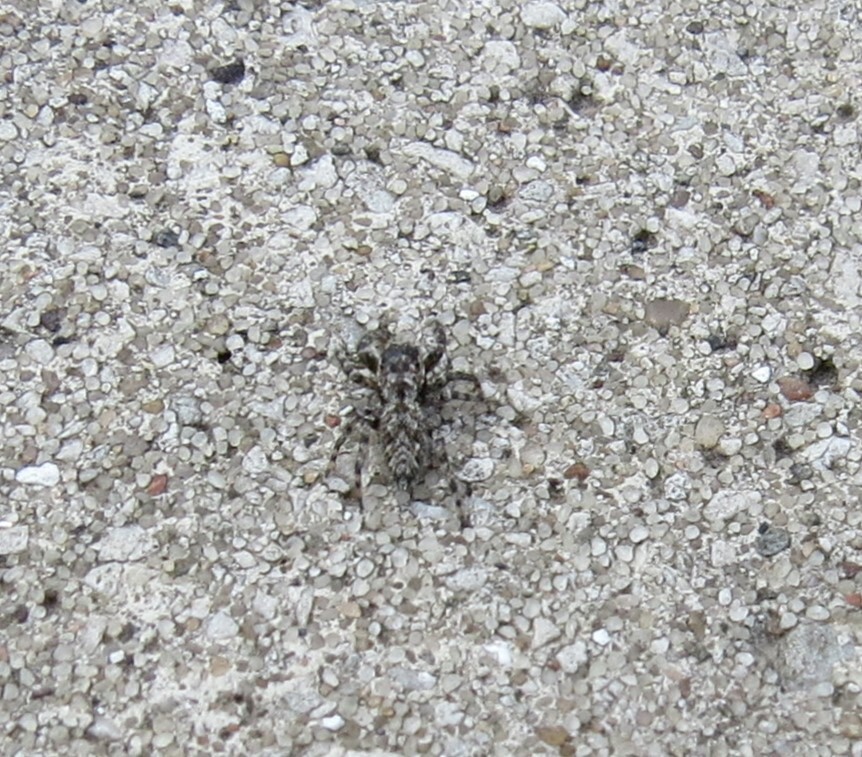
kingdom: Animalia
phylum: Arthropoda
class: Arachnida
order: Araneae
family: Salticidae
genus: Platycryptus
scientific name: Platycryptus undatus
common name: Tan jumping spider
